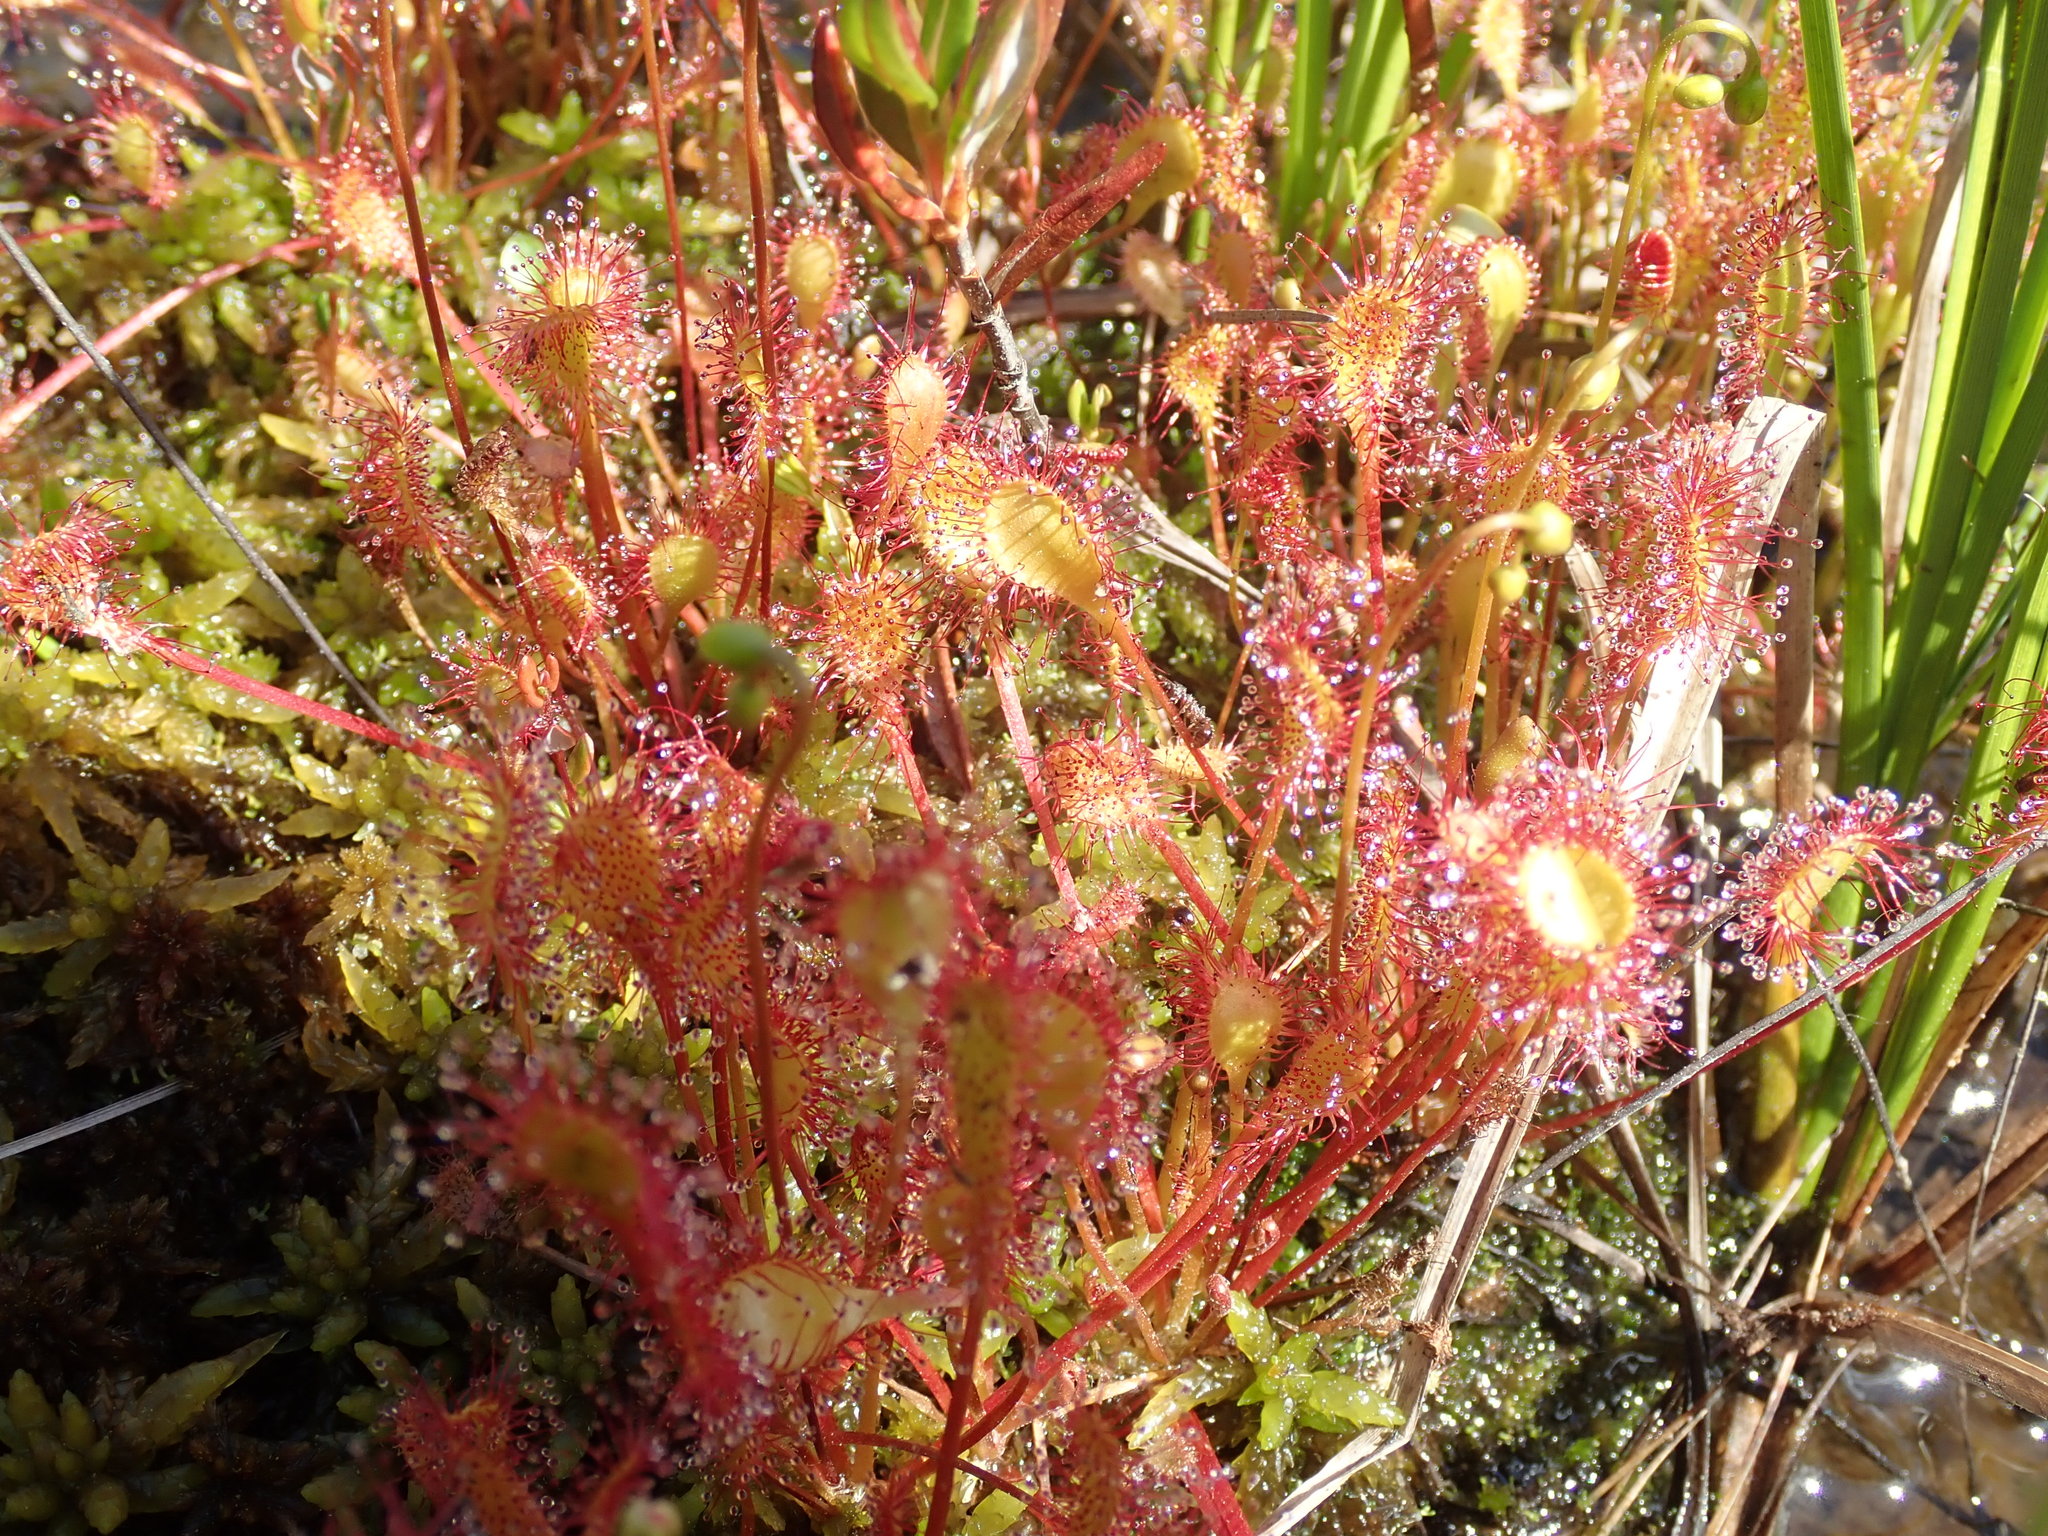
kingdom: Plantae
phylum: Tracheophyta
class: Magnoliopsida
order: Caryophyllales
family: Droseraceae
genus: Drosera
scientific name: Drosera obovata
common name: Ivan's paddle
